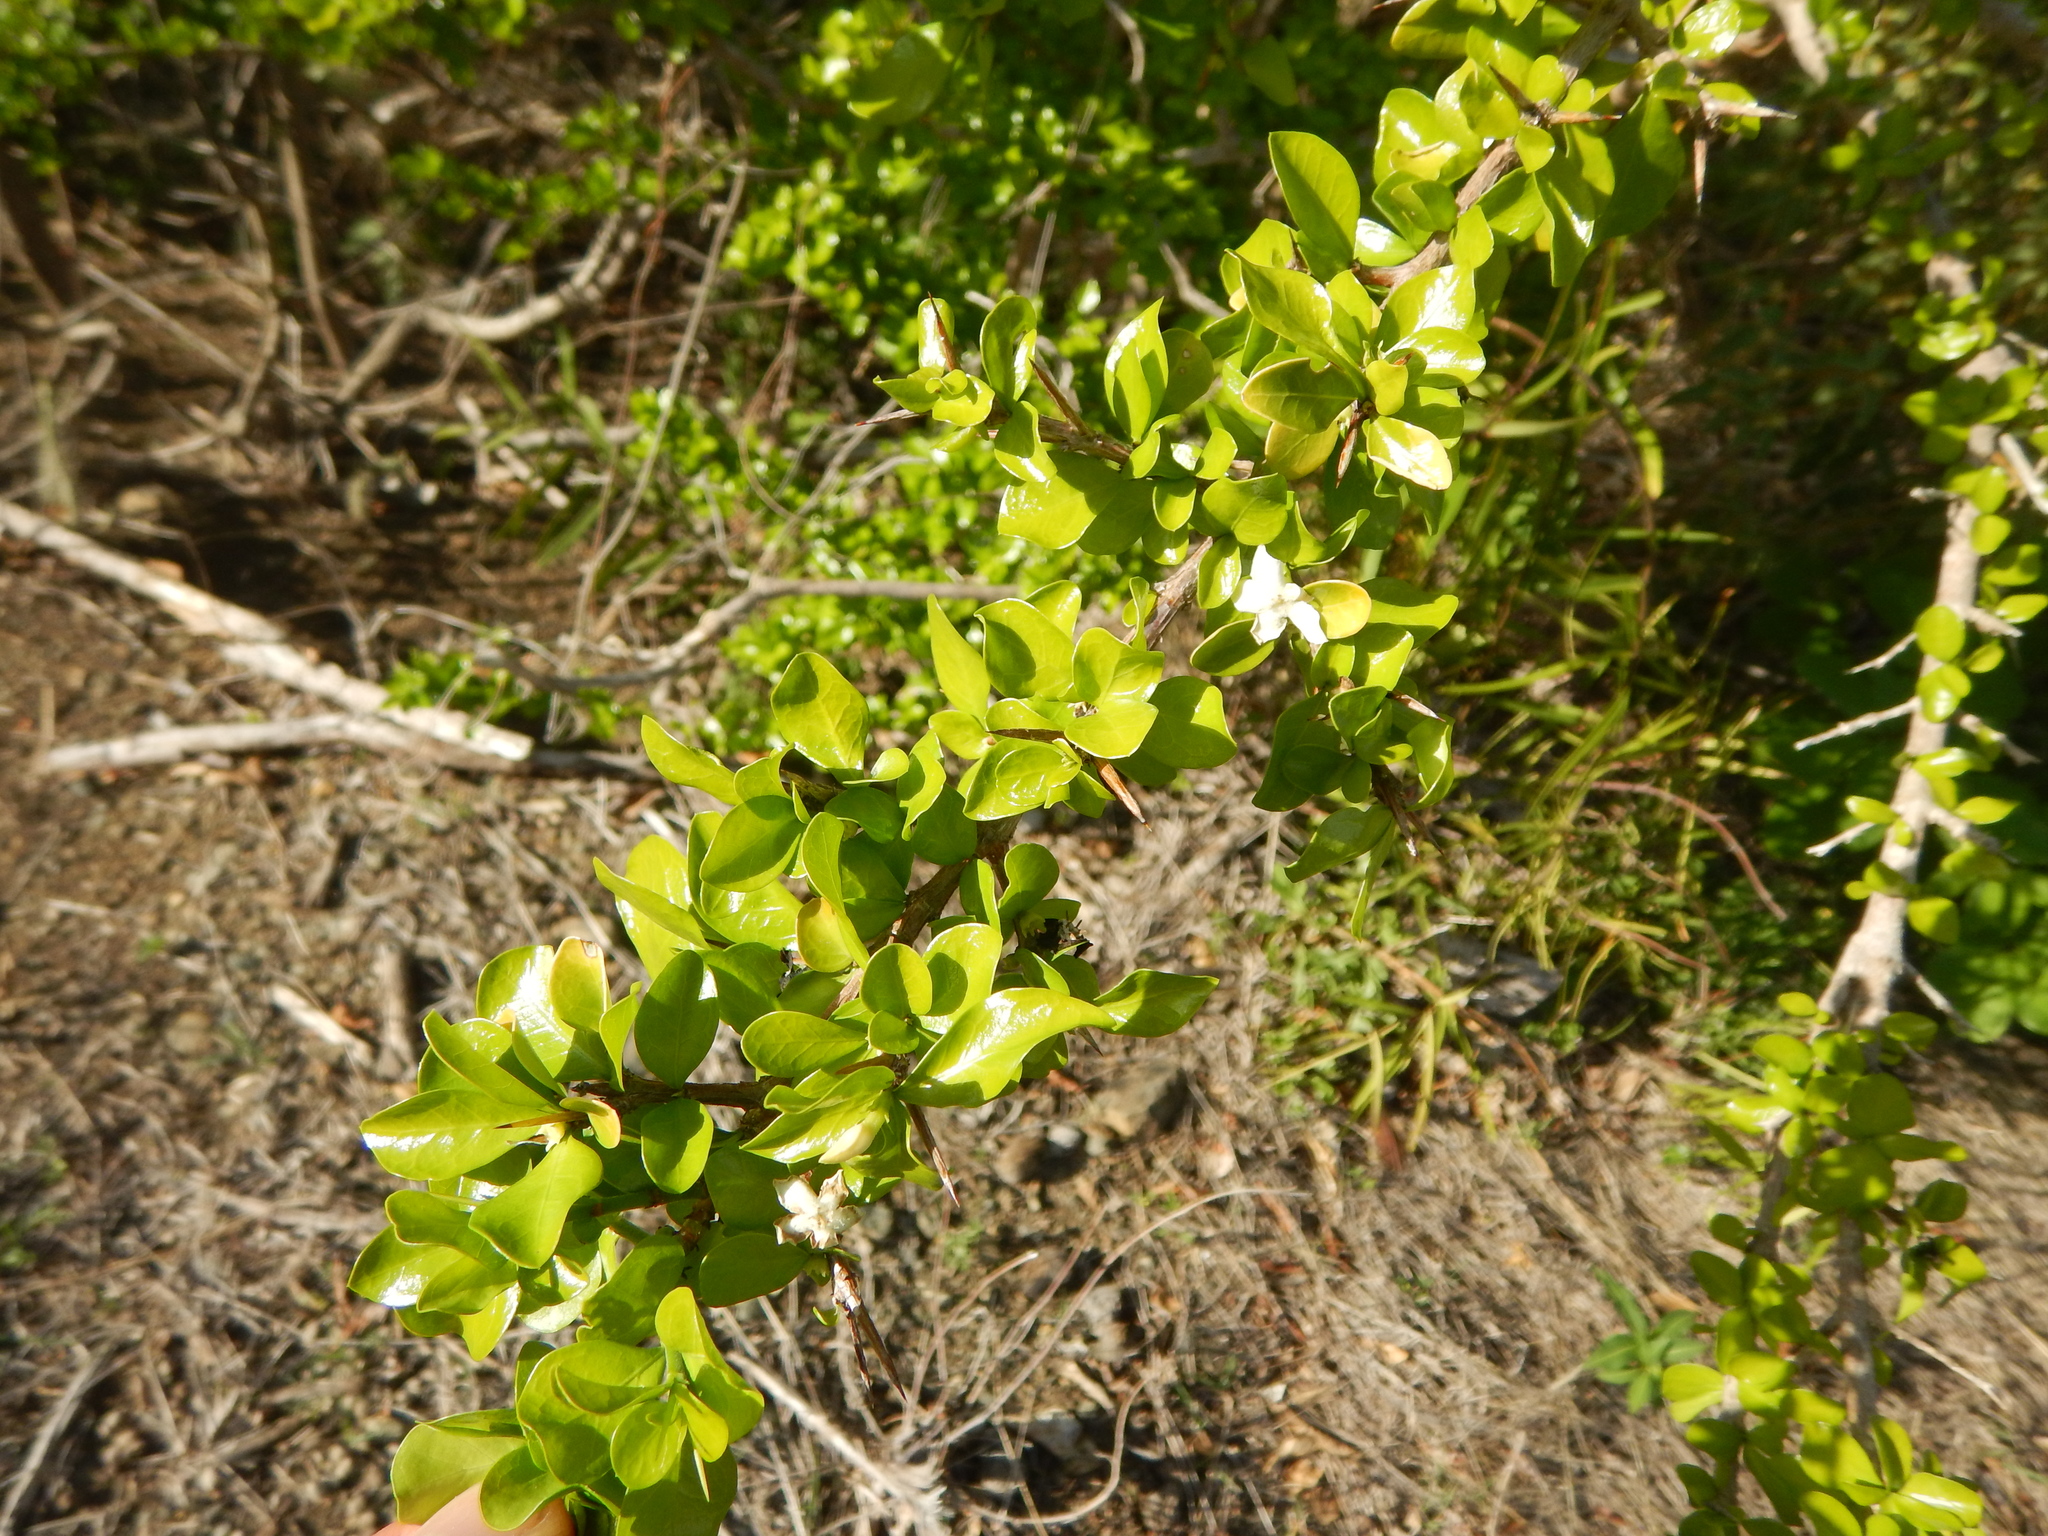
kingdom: Plantae
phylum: Tracheophyta
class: Magnoliopsida
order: Gentianales
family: Rubiaceae
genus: Randia
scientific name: Randia aculeata
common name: Inkberry
